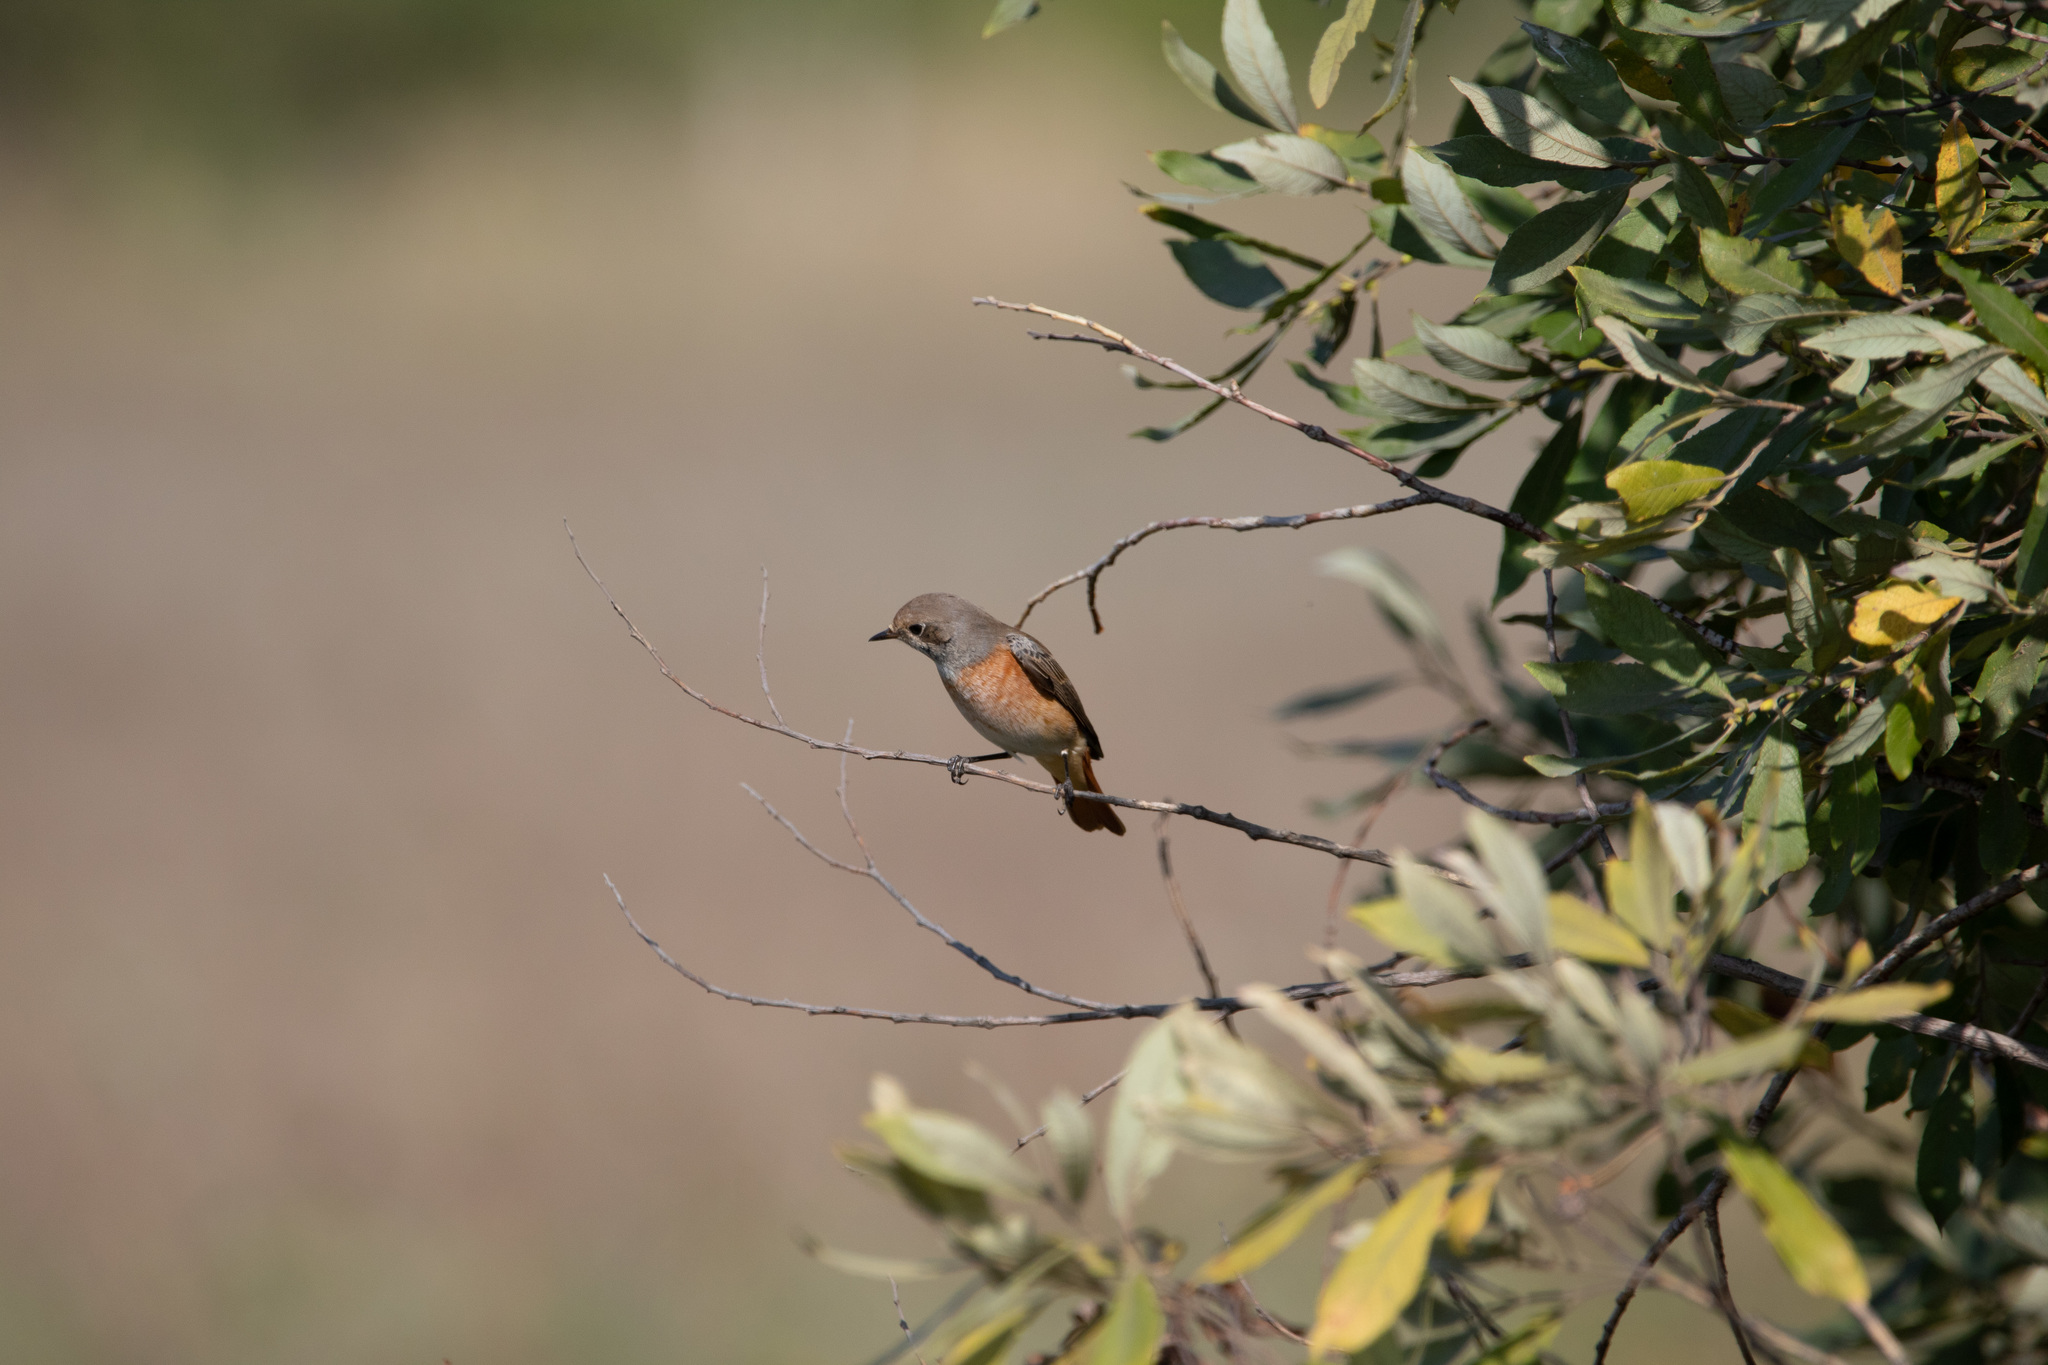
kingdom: Animalia
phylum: Chordata
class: Aves
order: Passeriformes
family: Muscicapidae
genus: Phoenicurus
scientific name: Phoenicurus phoenicurus
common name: Common redstart
